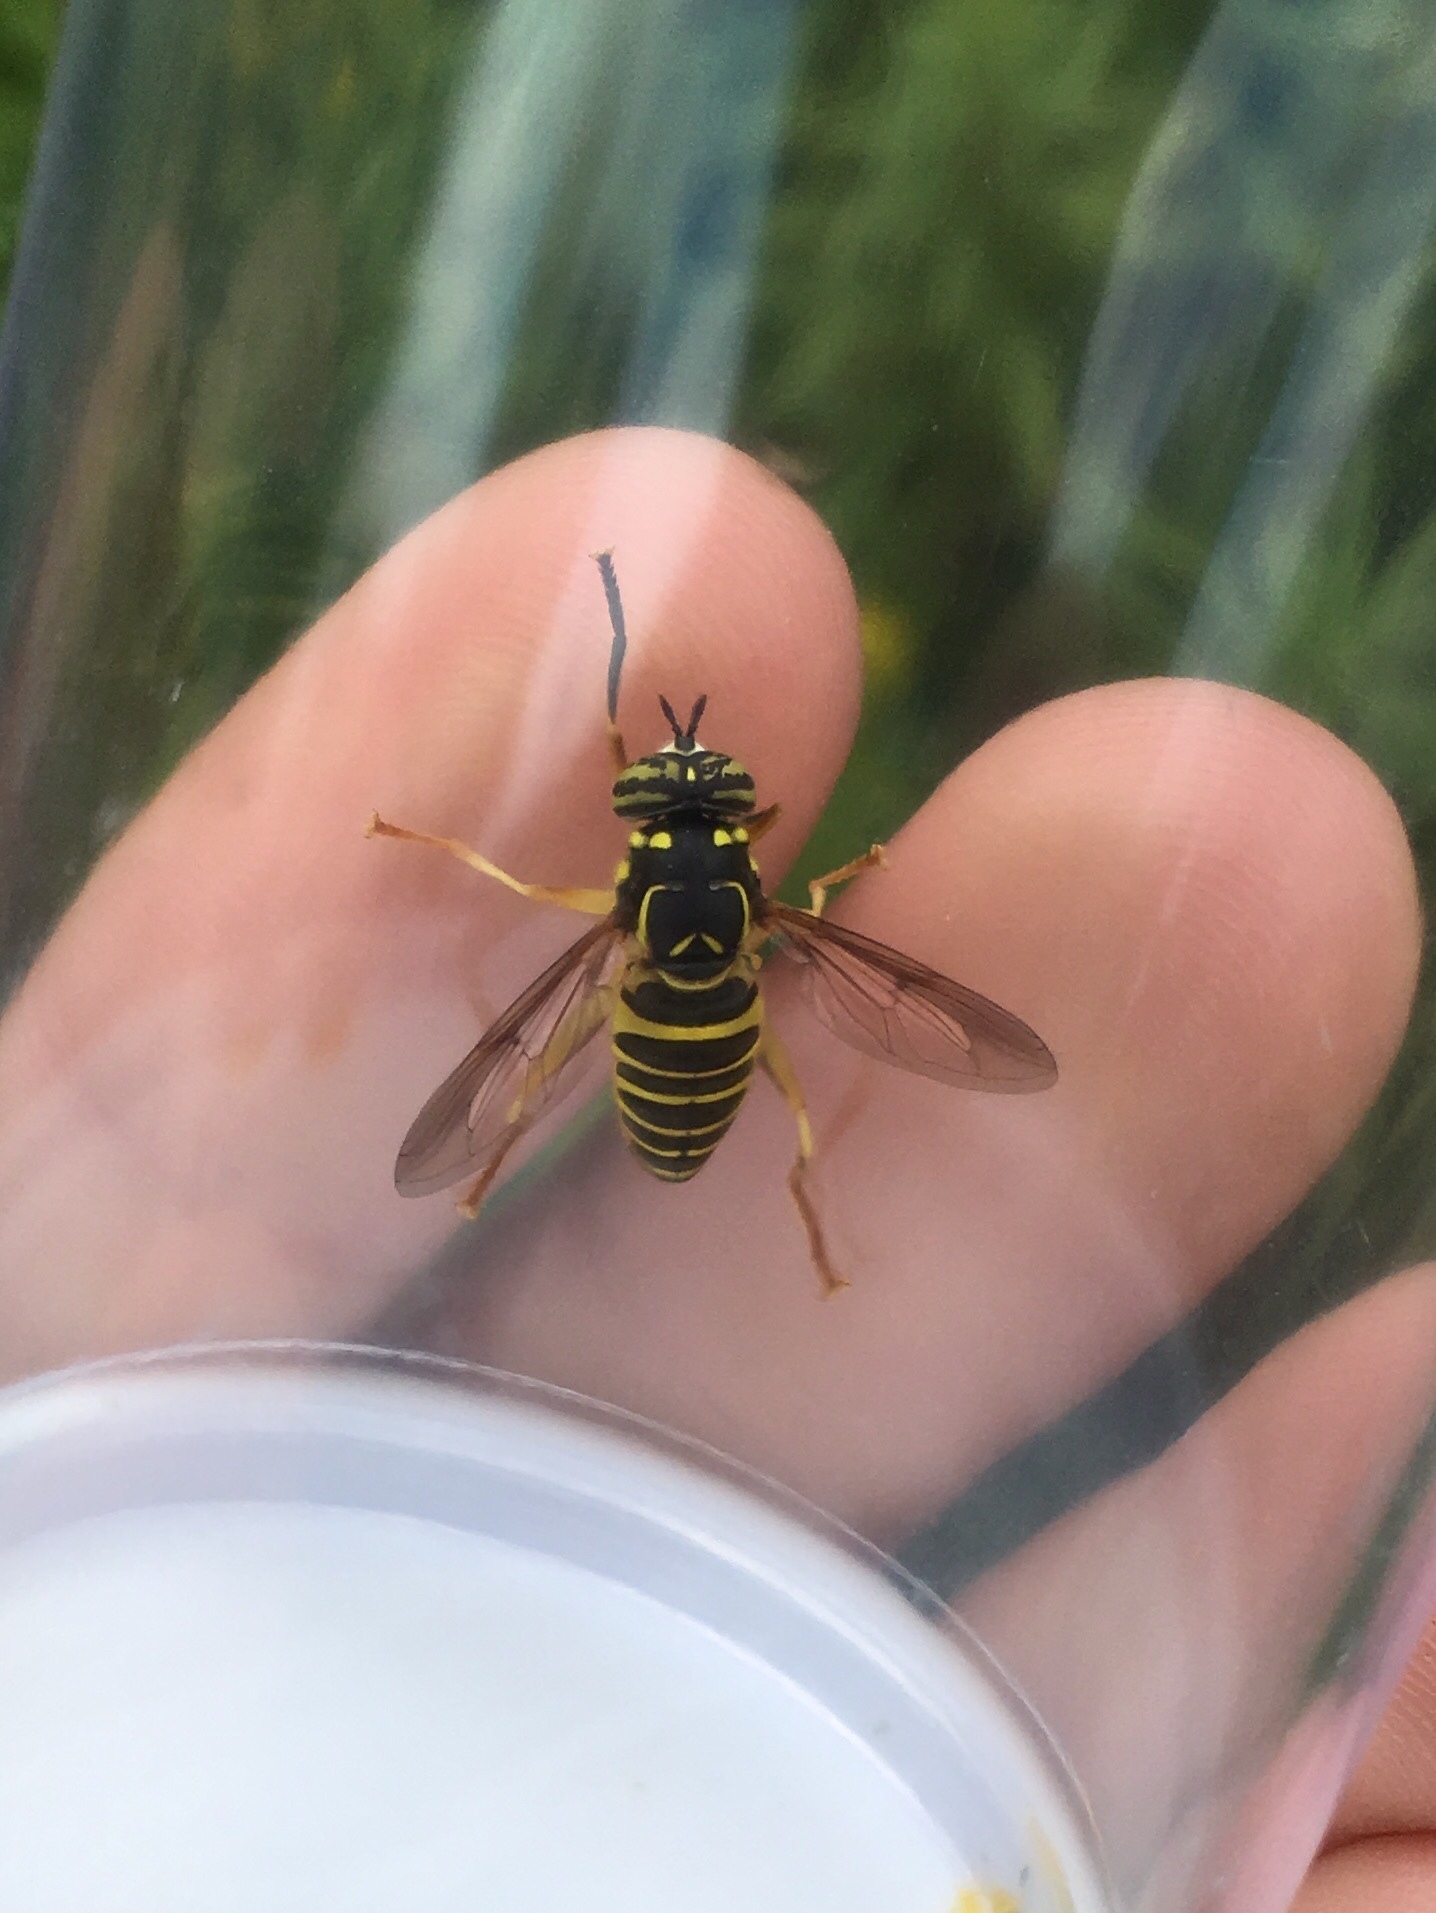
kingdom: Animalia
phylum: Arthropoda
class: Insecta
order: Diptera
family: Syrphidae
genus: Spilomyia
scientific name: Spilomyia longicornis
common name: Eastern hornet fly
